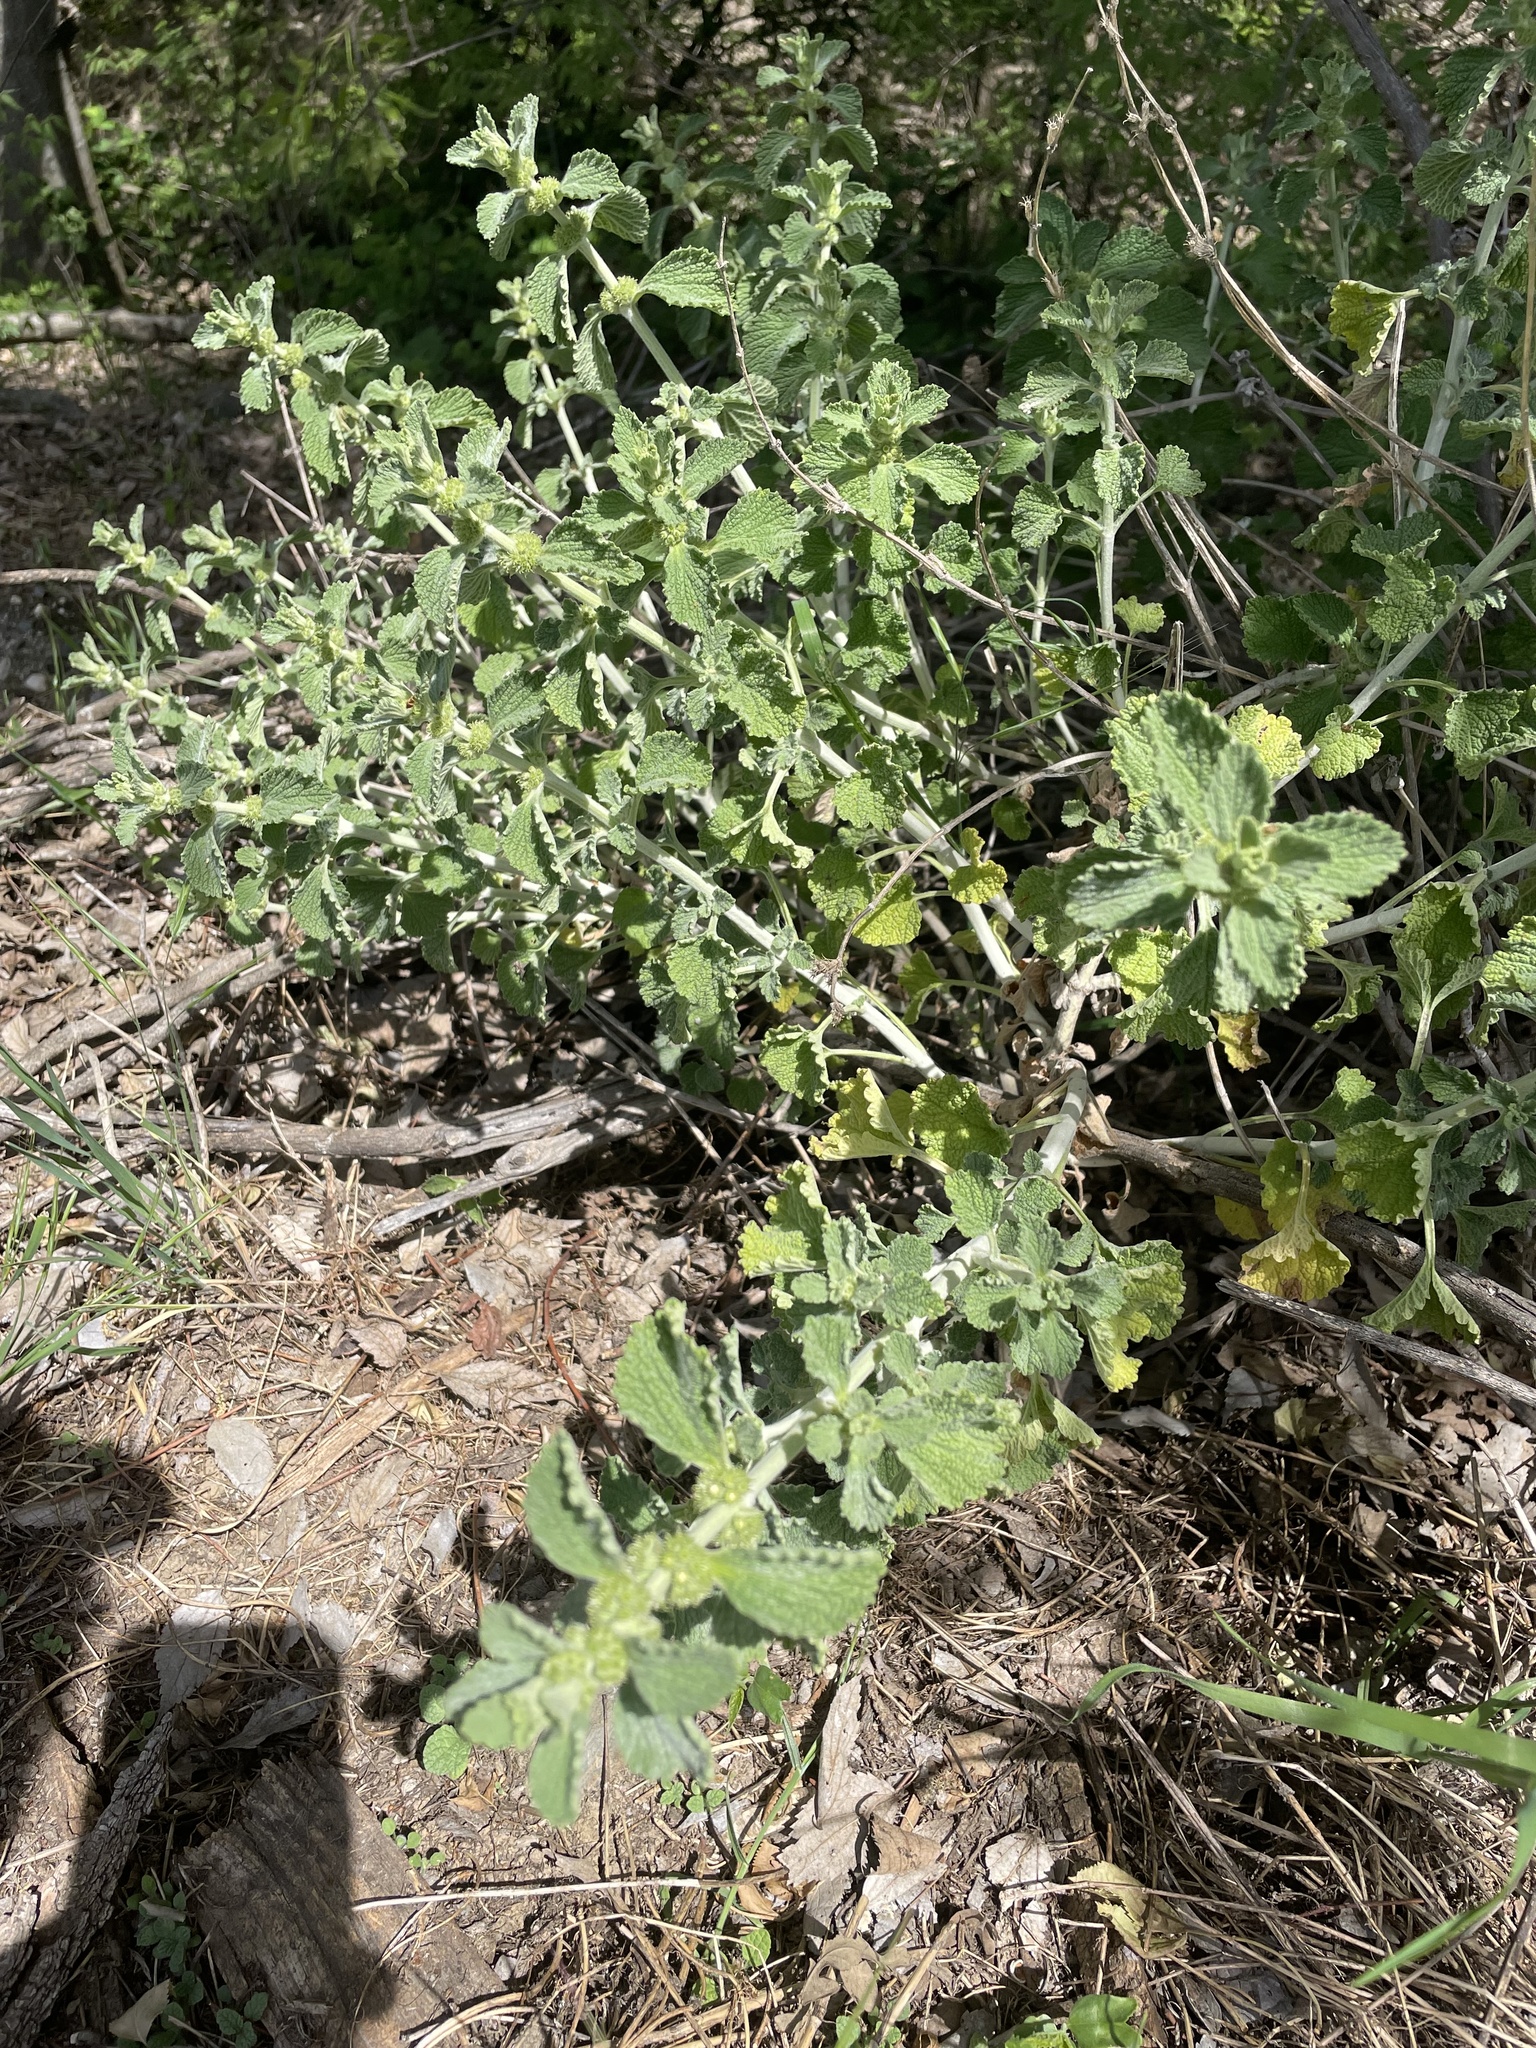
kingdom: Plantae
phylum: Tracheophyta
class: Magnoliopsida
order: Lamiales
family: Lamiaceae
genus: Marrubium
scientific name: Marrubium vulgare
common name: Horehound
